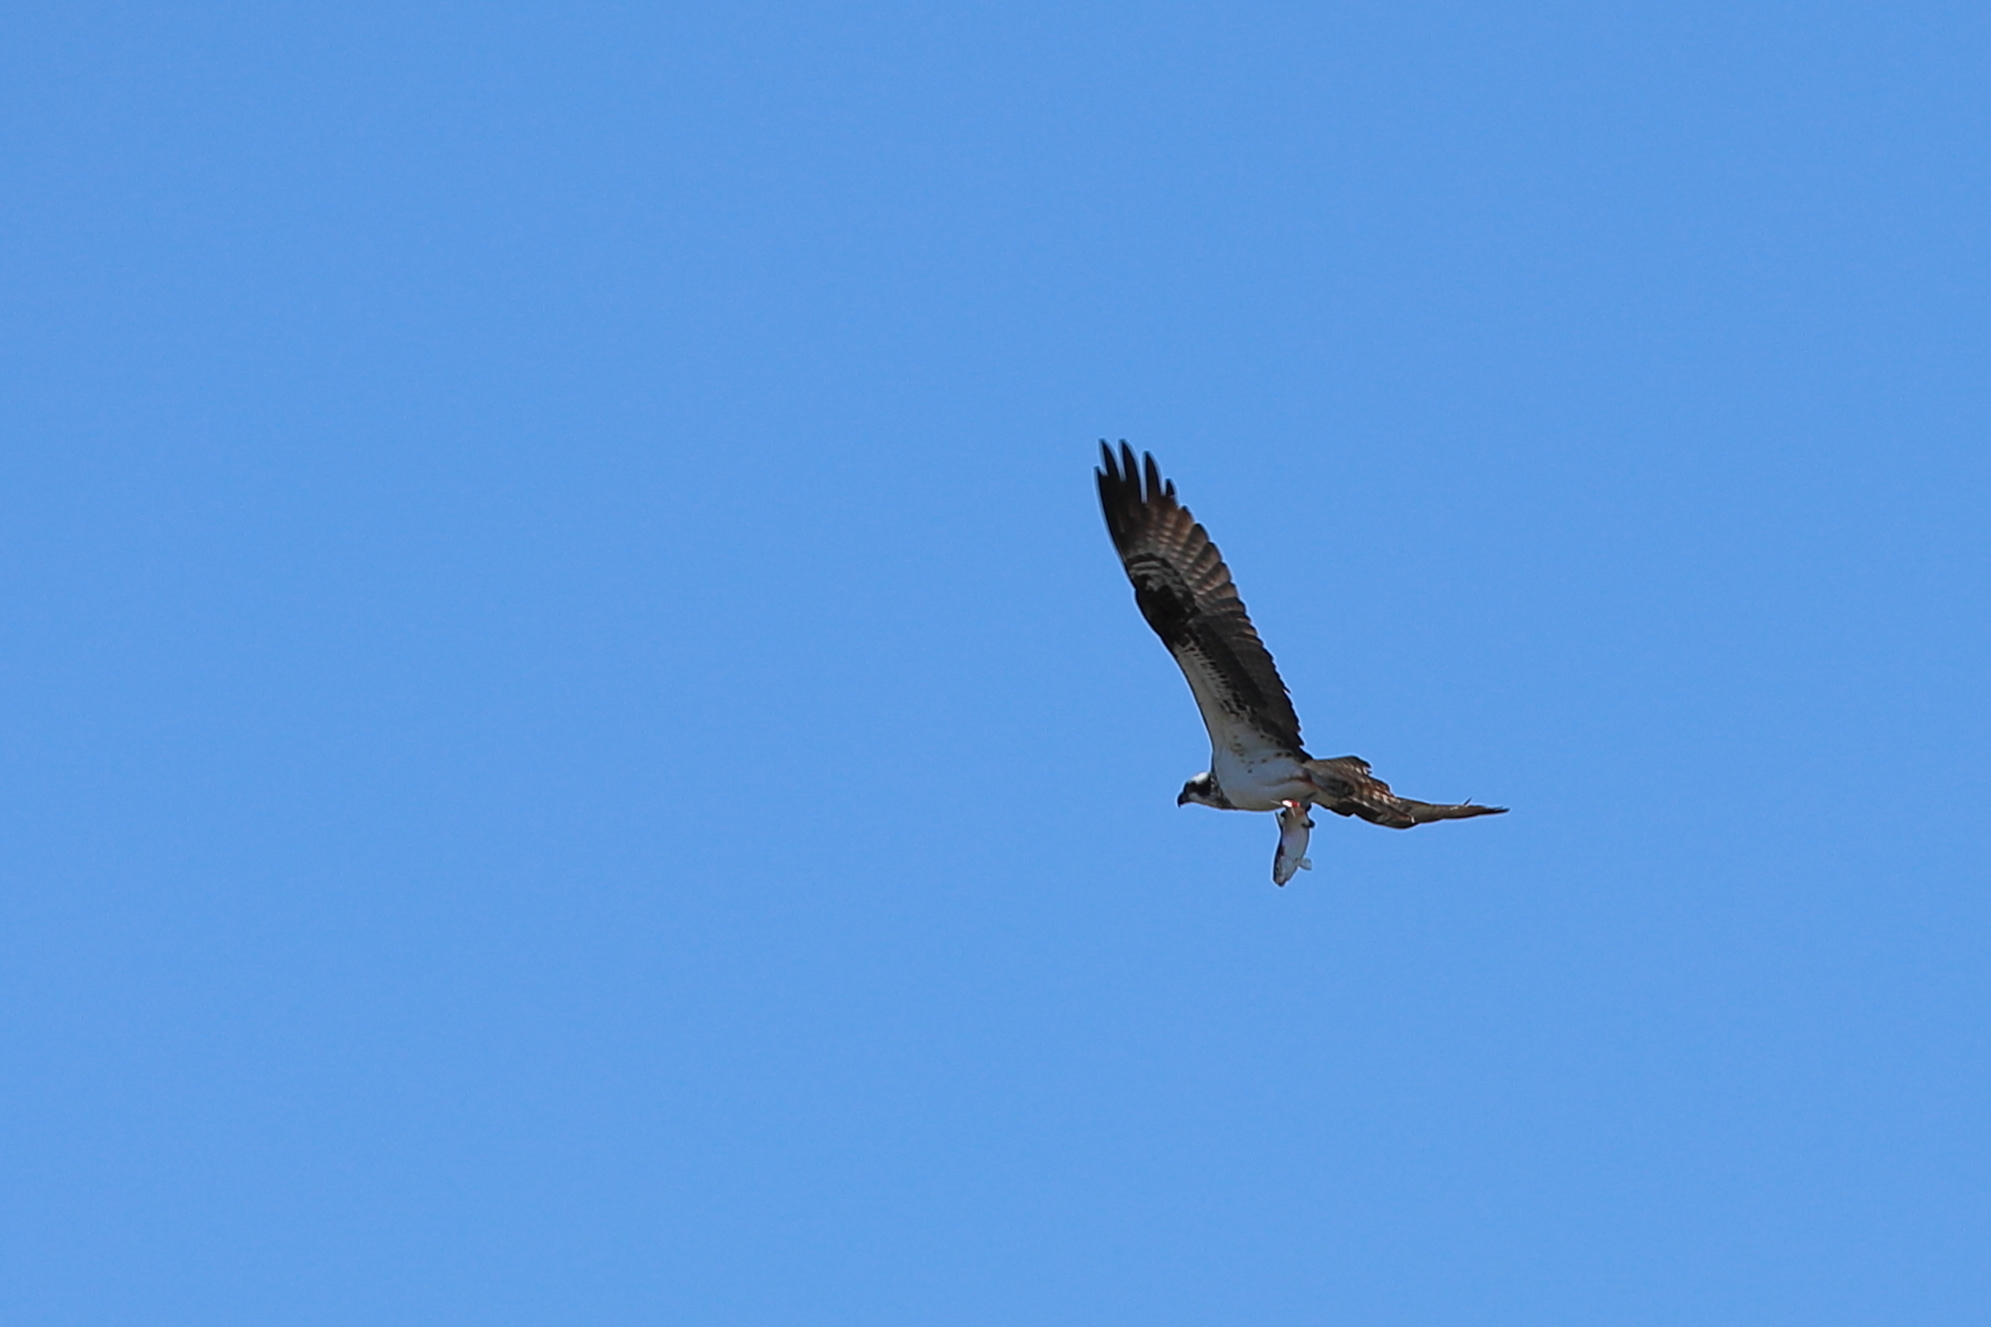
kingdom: Animalia
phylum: Chordata
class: Aves
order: Accipitriformes
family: Pandionidae
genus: Pandion
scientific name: Pandion haliaetus
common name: Osprey
